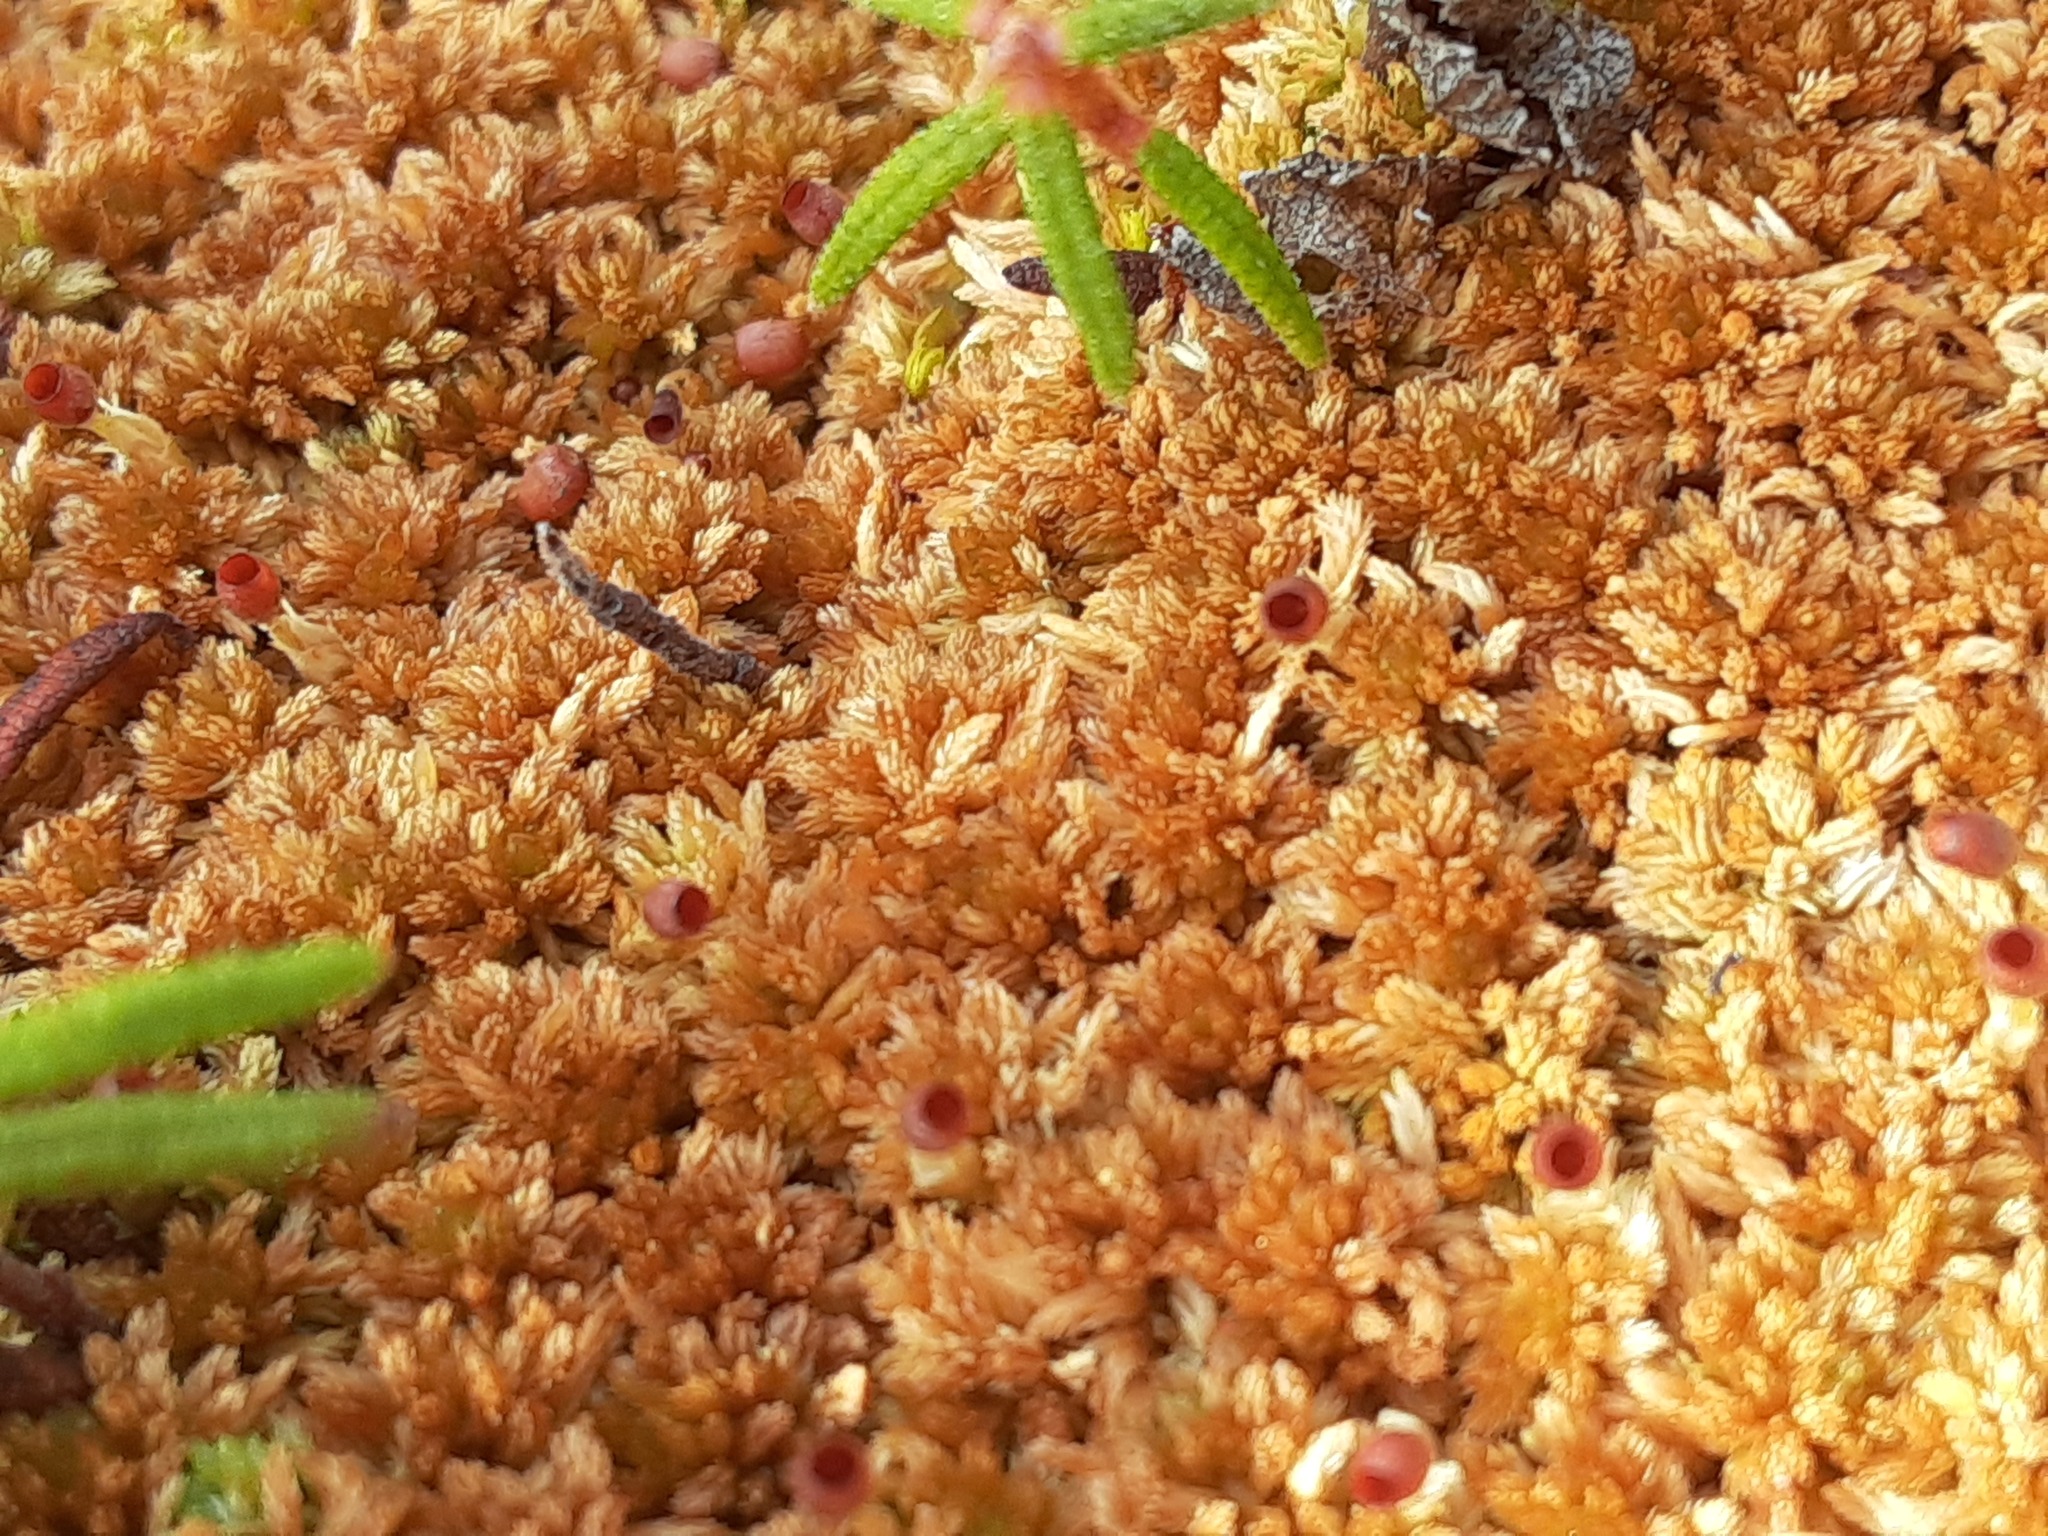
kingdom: Plantae
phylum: Bryophyta
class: Sphagnopsida
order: Sphagnales
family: Sphagnaceae
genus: Sphagnum
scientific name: Sphagnum fuscum
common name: Brown peat moss
